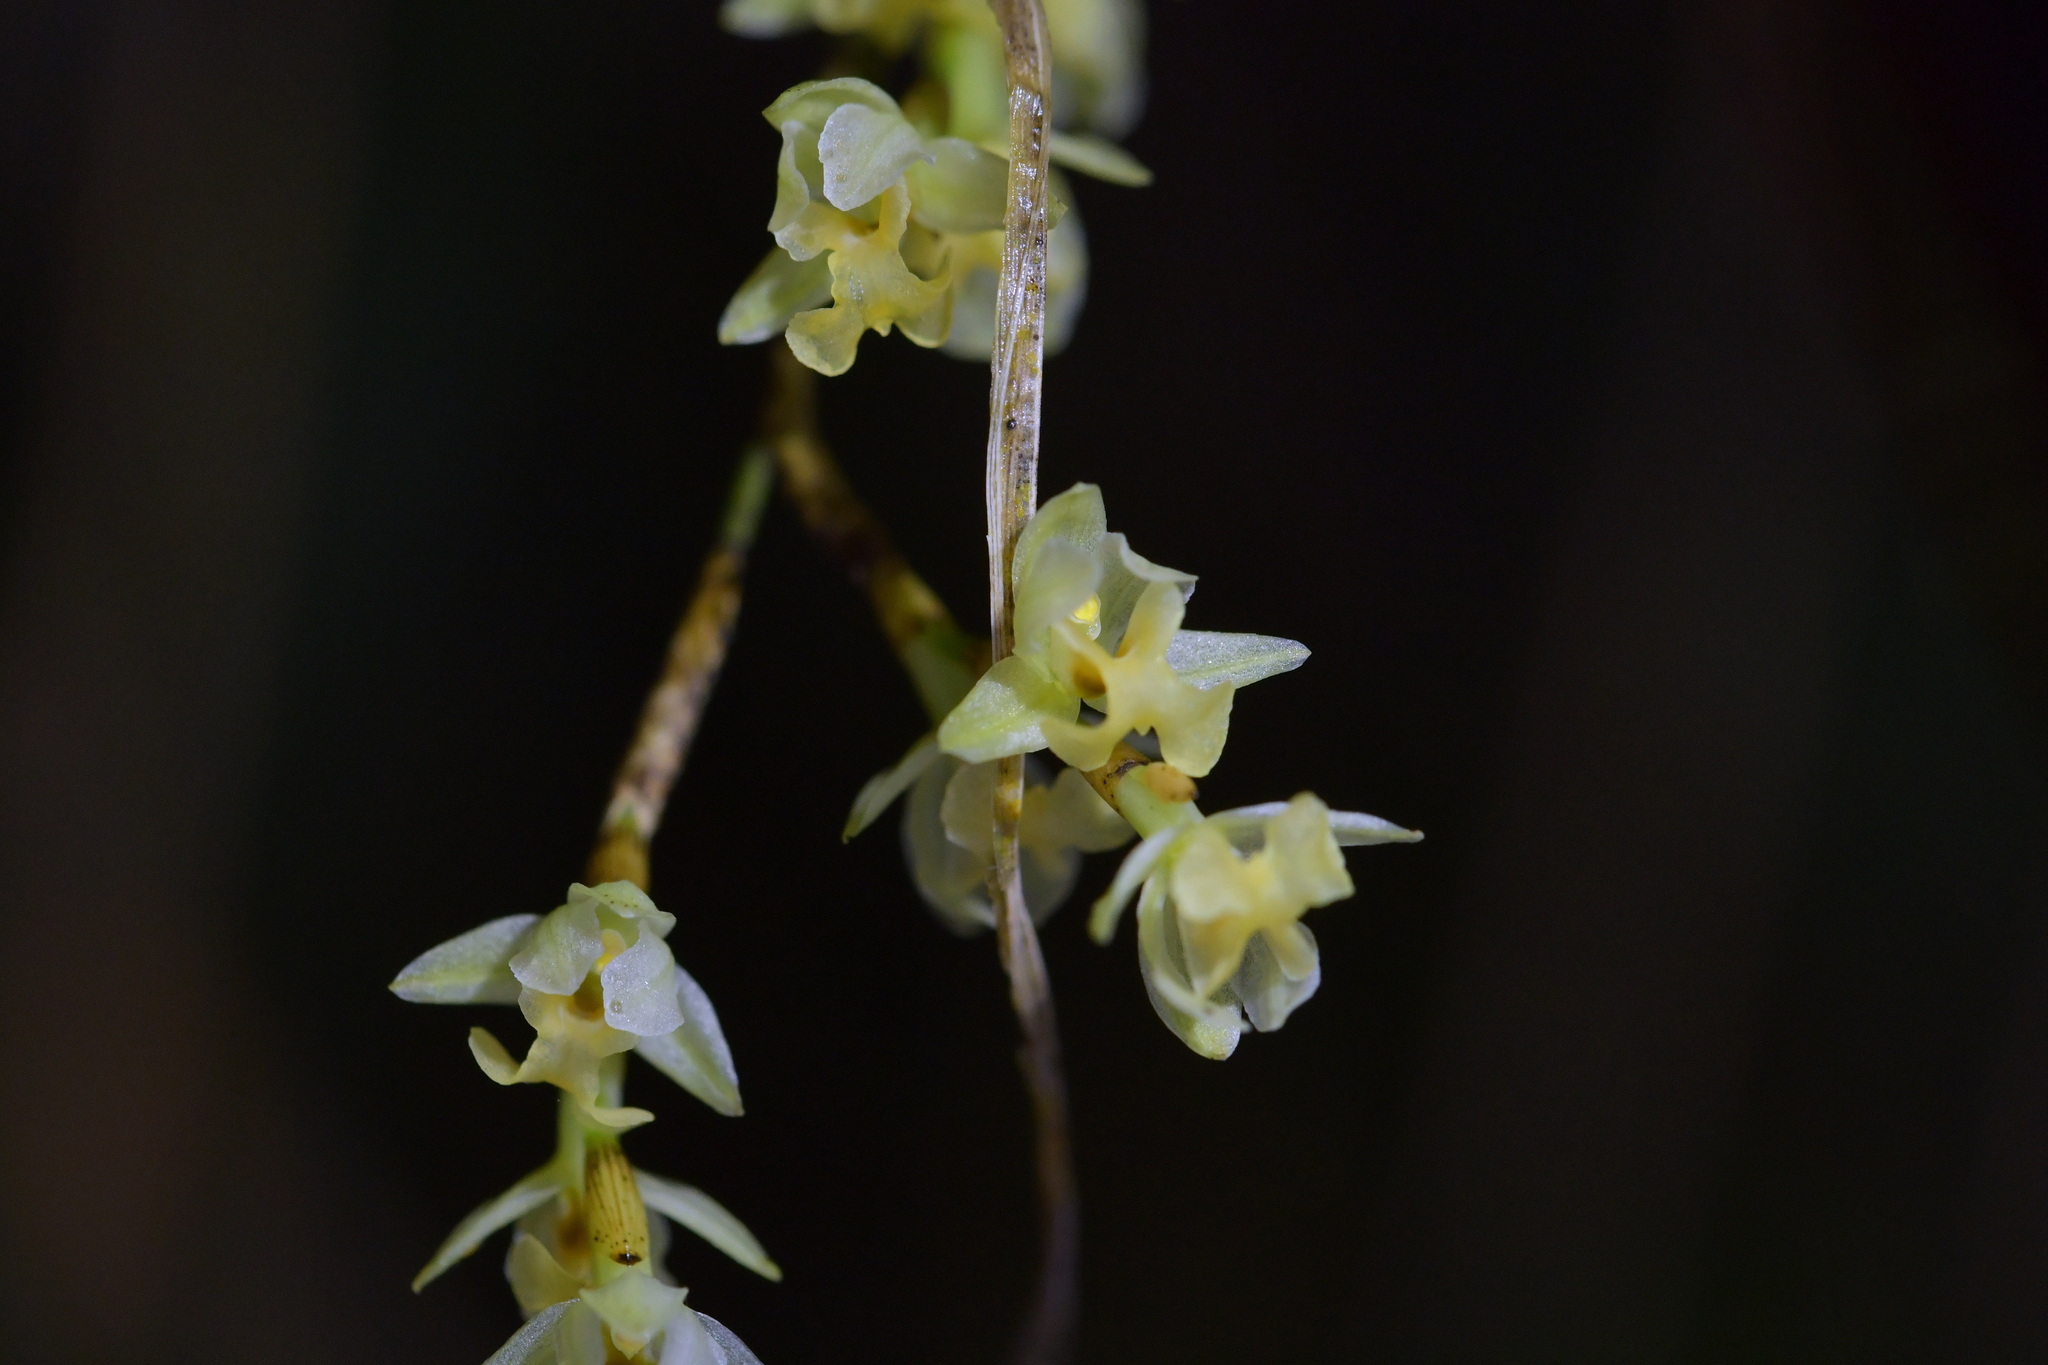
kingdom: Plantae
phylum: Tracheophyta
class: Liliopsida
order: Asparagales
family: Orchidaceae
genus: Earina
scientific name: Earina mucronata
